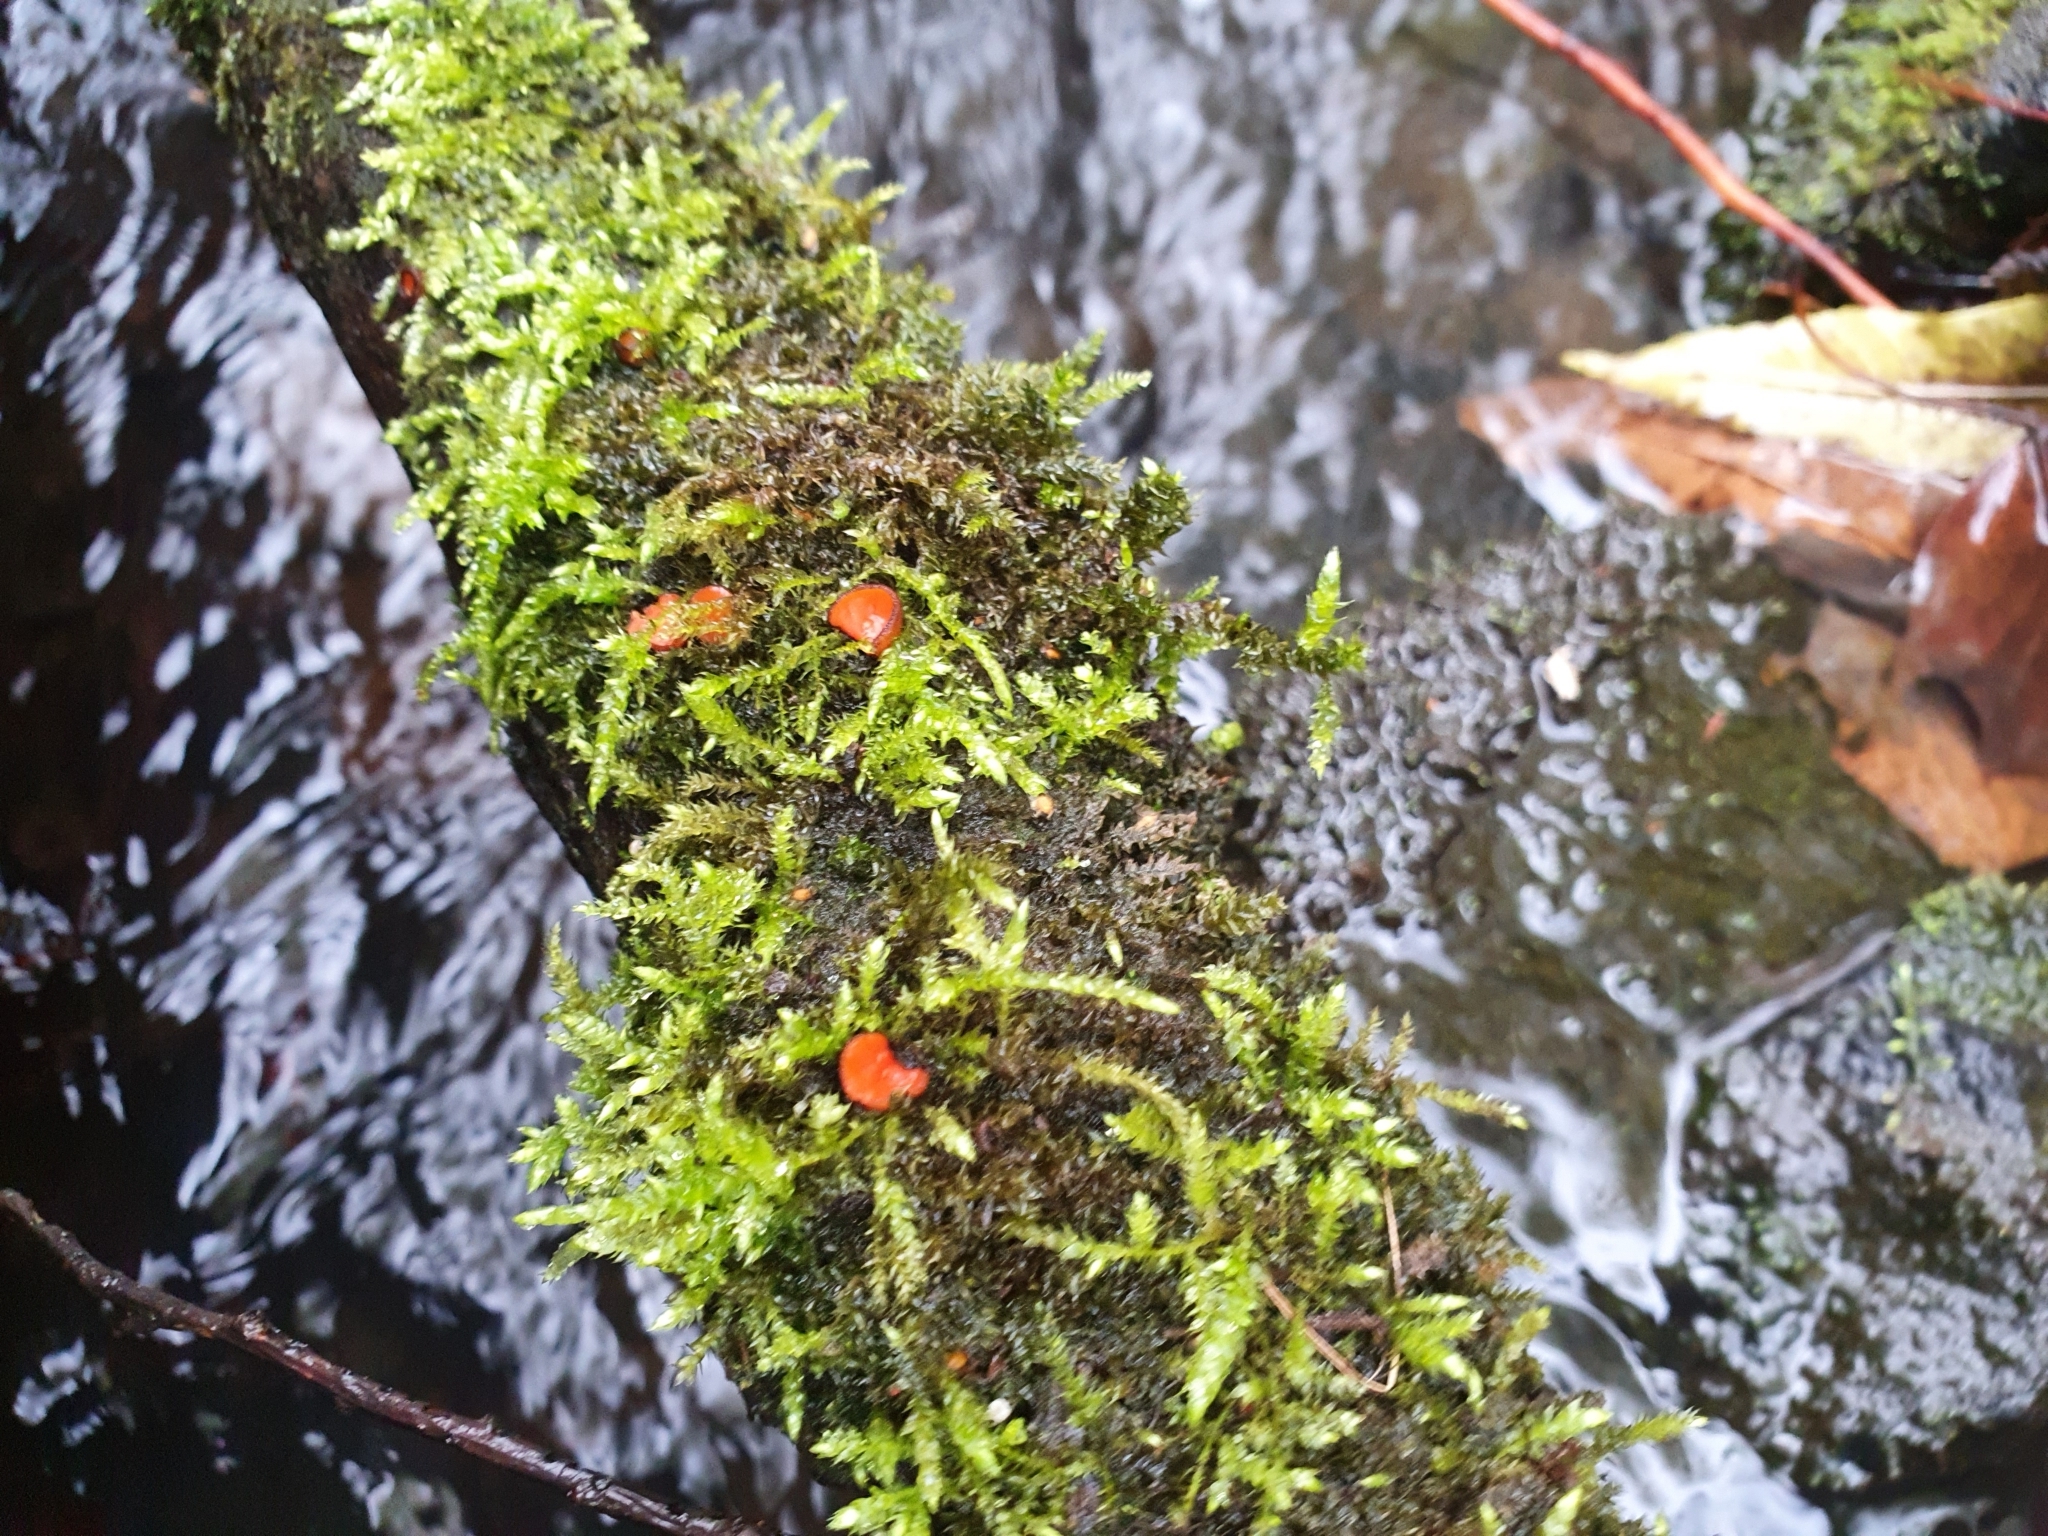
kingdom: Fungi
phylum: Ascomycota
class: Pezizomycetes
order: Pezizales
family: Pyronemataceae
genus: Scutellinia
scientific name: Scutellinia
